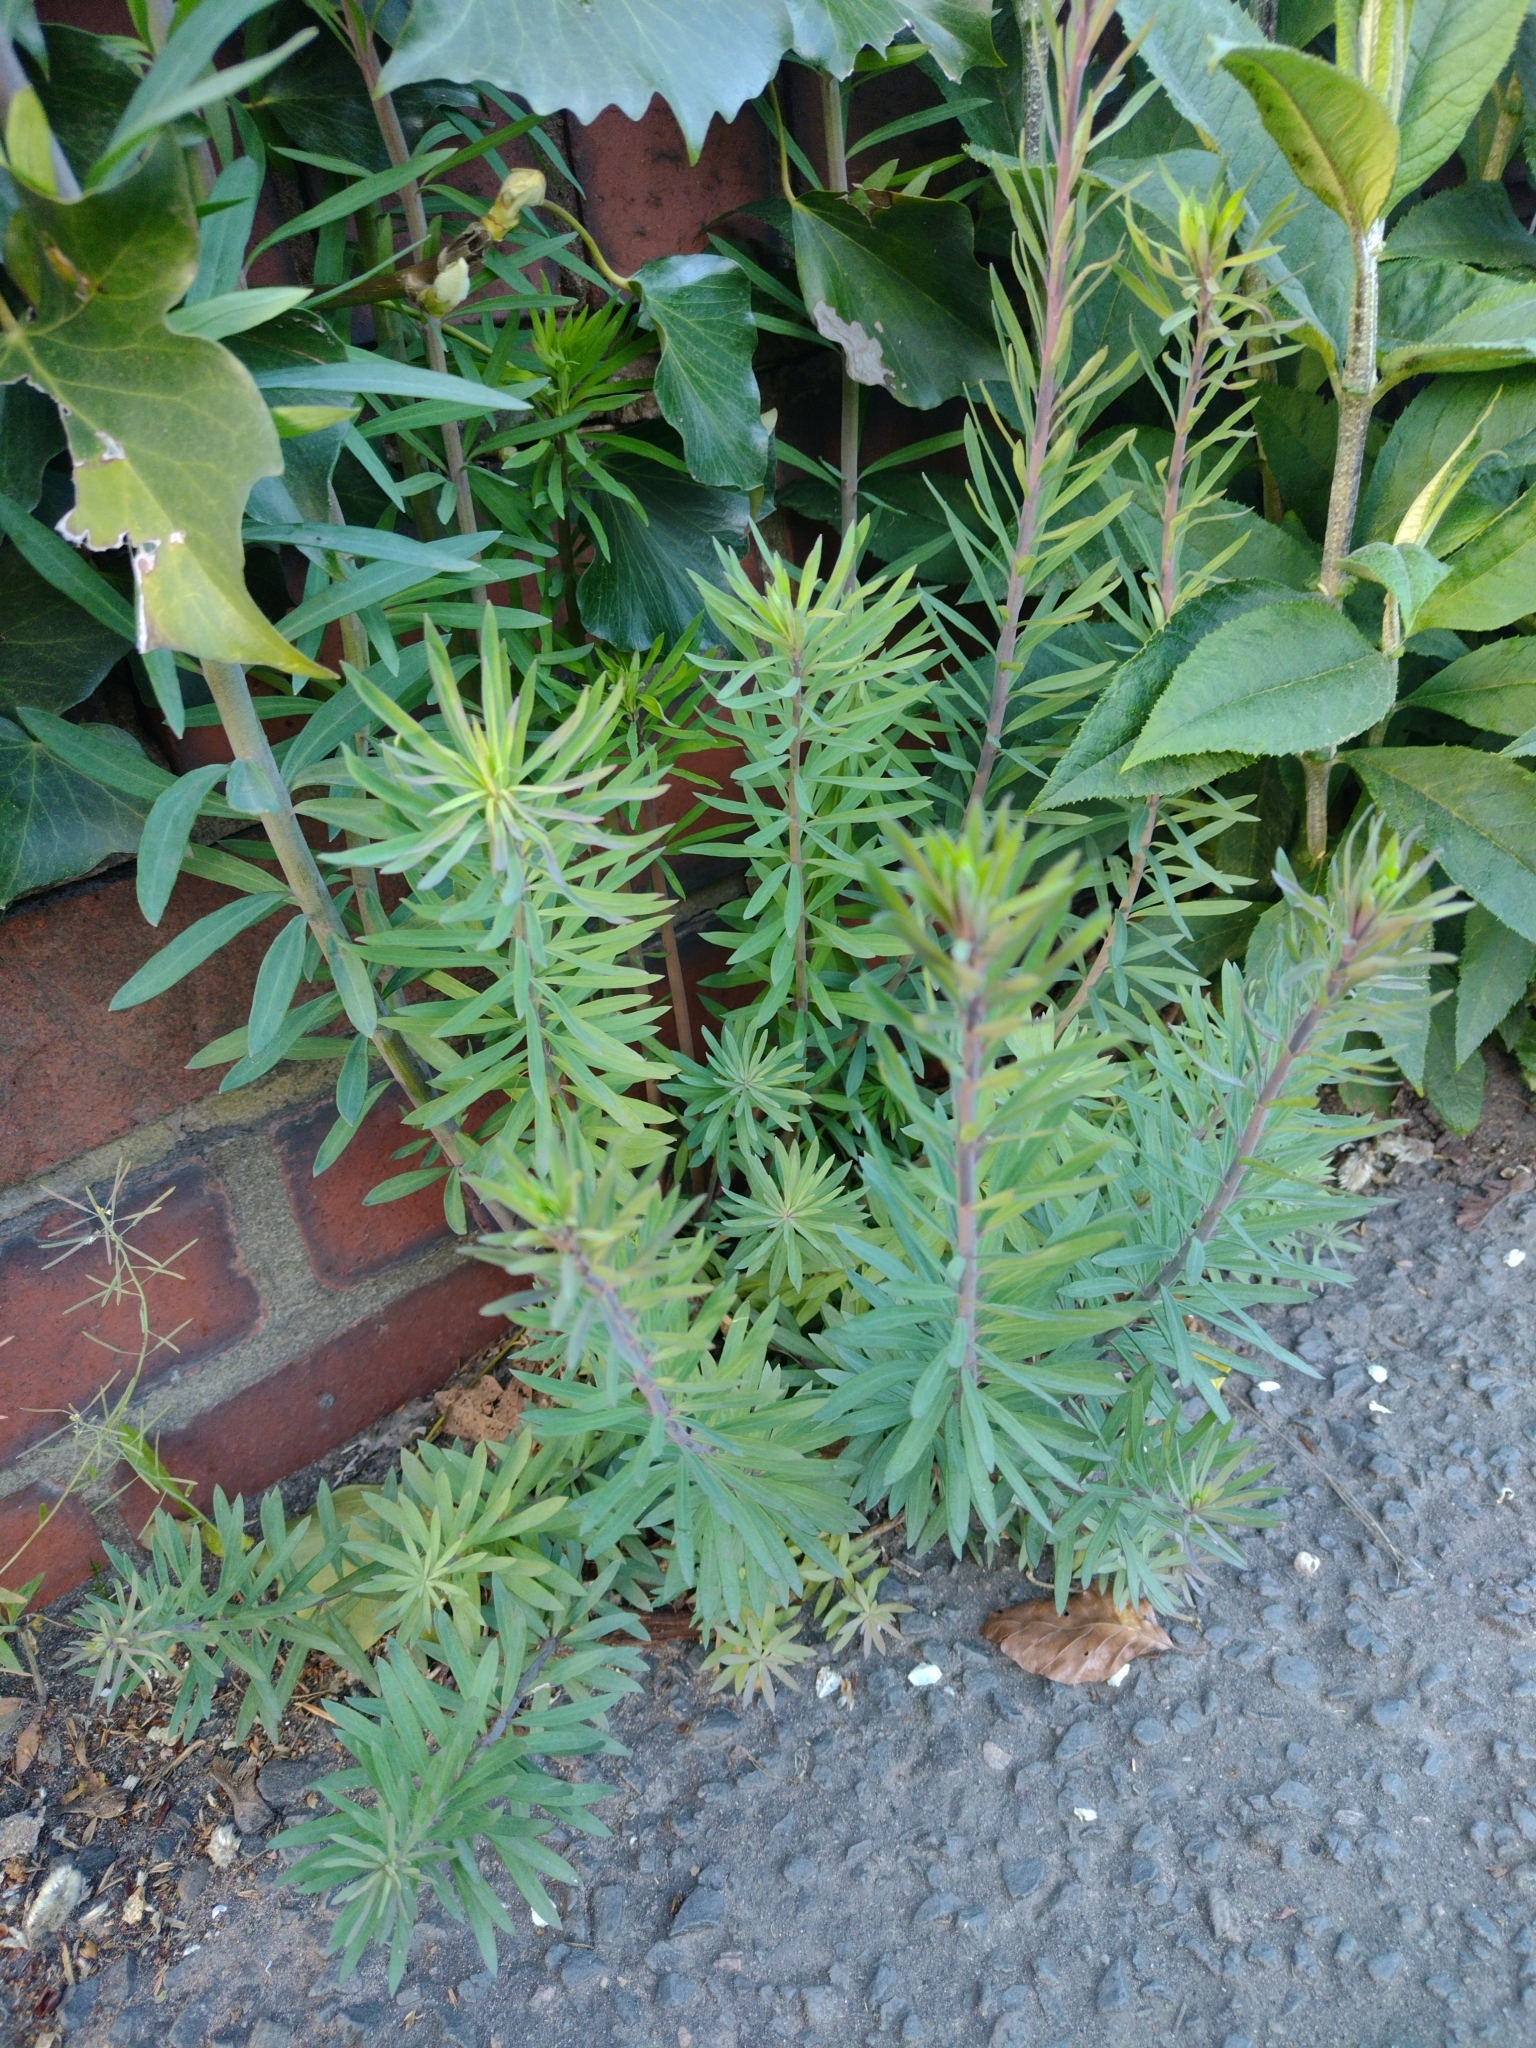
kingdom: Plantae
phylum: Tracheophyta
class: Magnoliopsida
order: Lamiales
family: Plantaginaceae
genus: Linaria
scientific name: Linaria purpurea
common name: Purple toadflax
